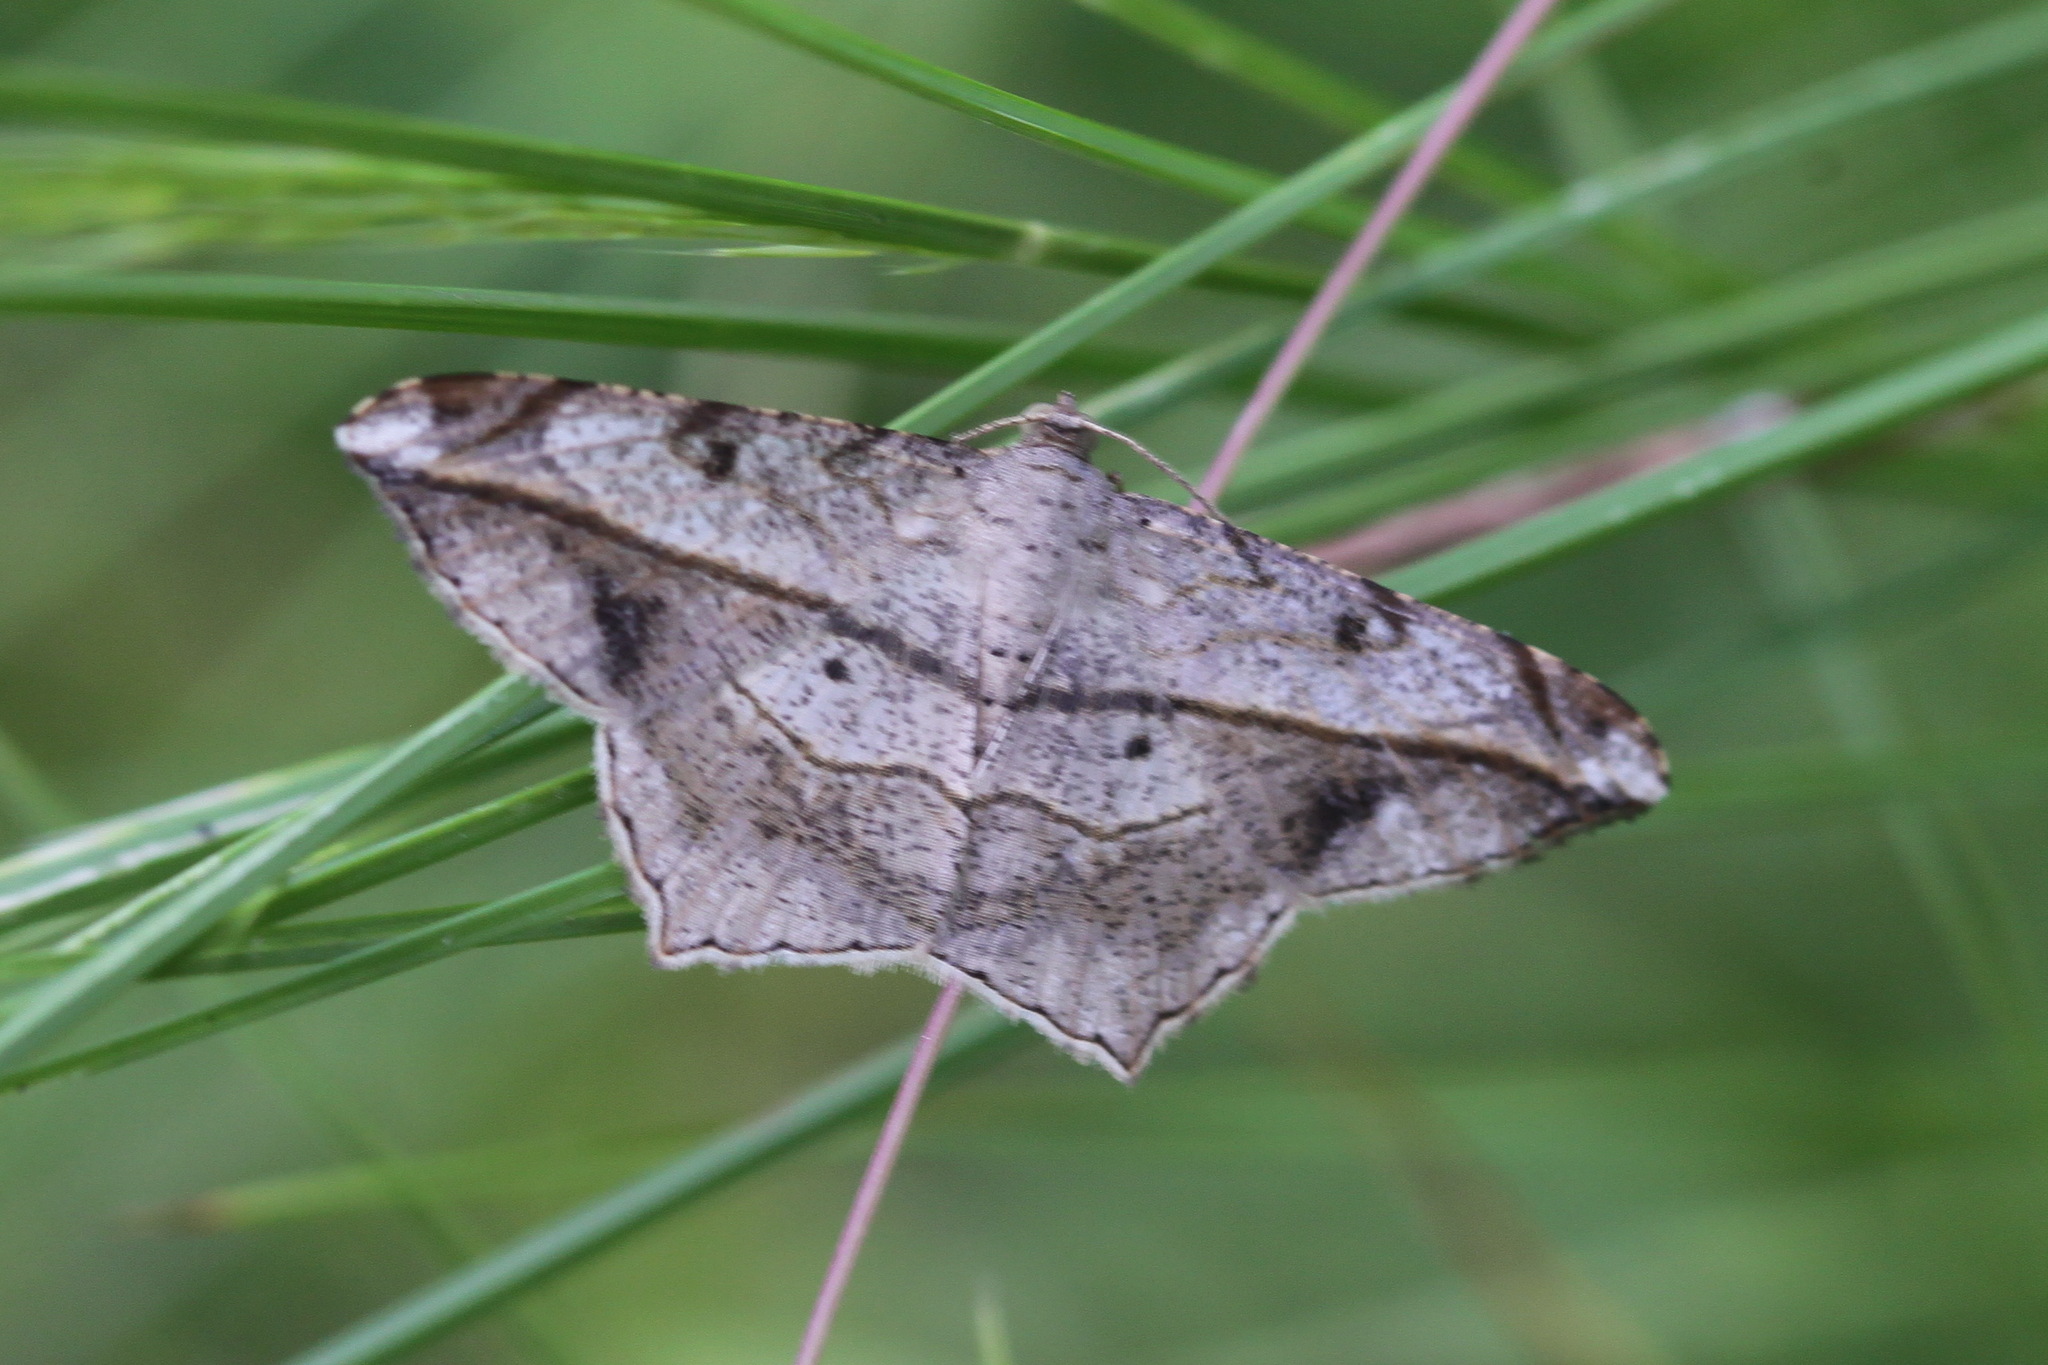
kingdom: Animalia
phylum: Arthropoda
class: Insecta
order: Lepidoptera
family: Geometridae
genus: Chiasmia
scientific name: Chiasmia simplicilinea
